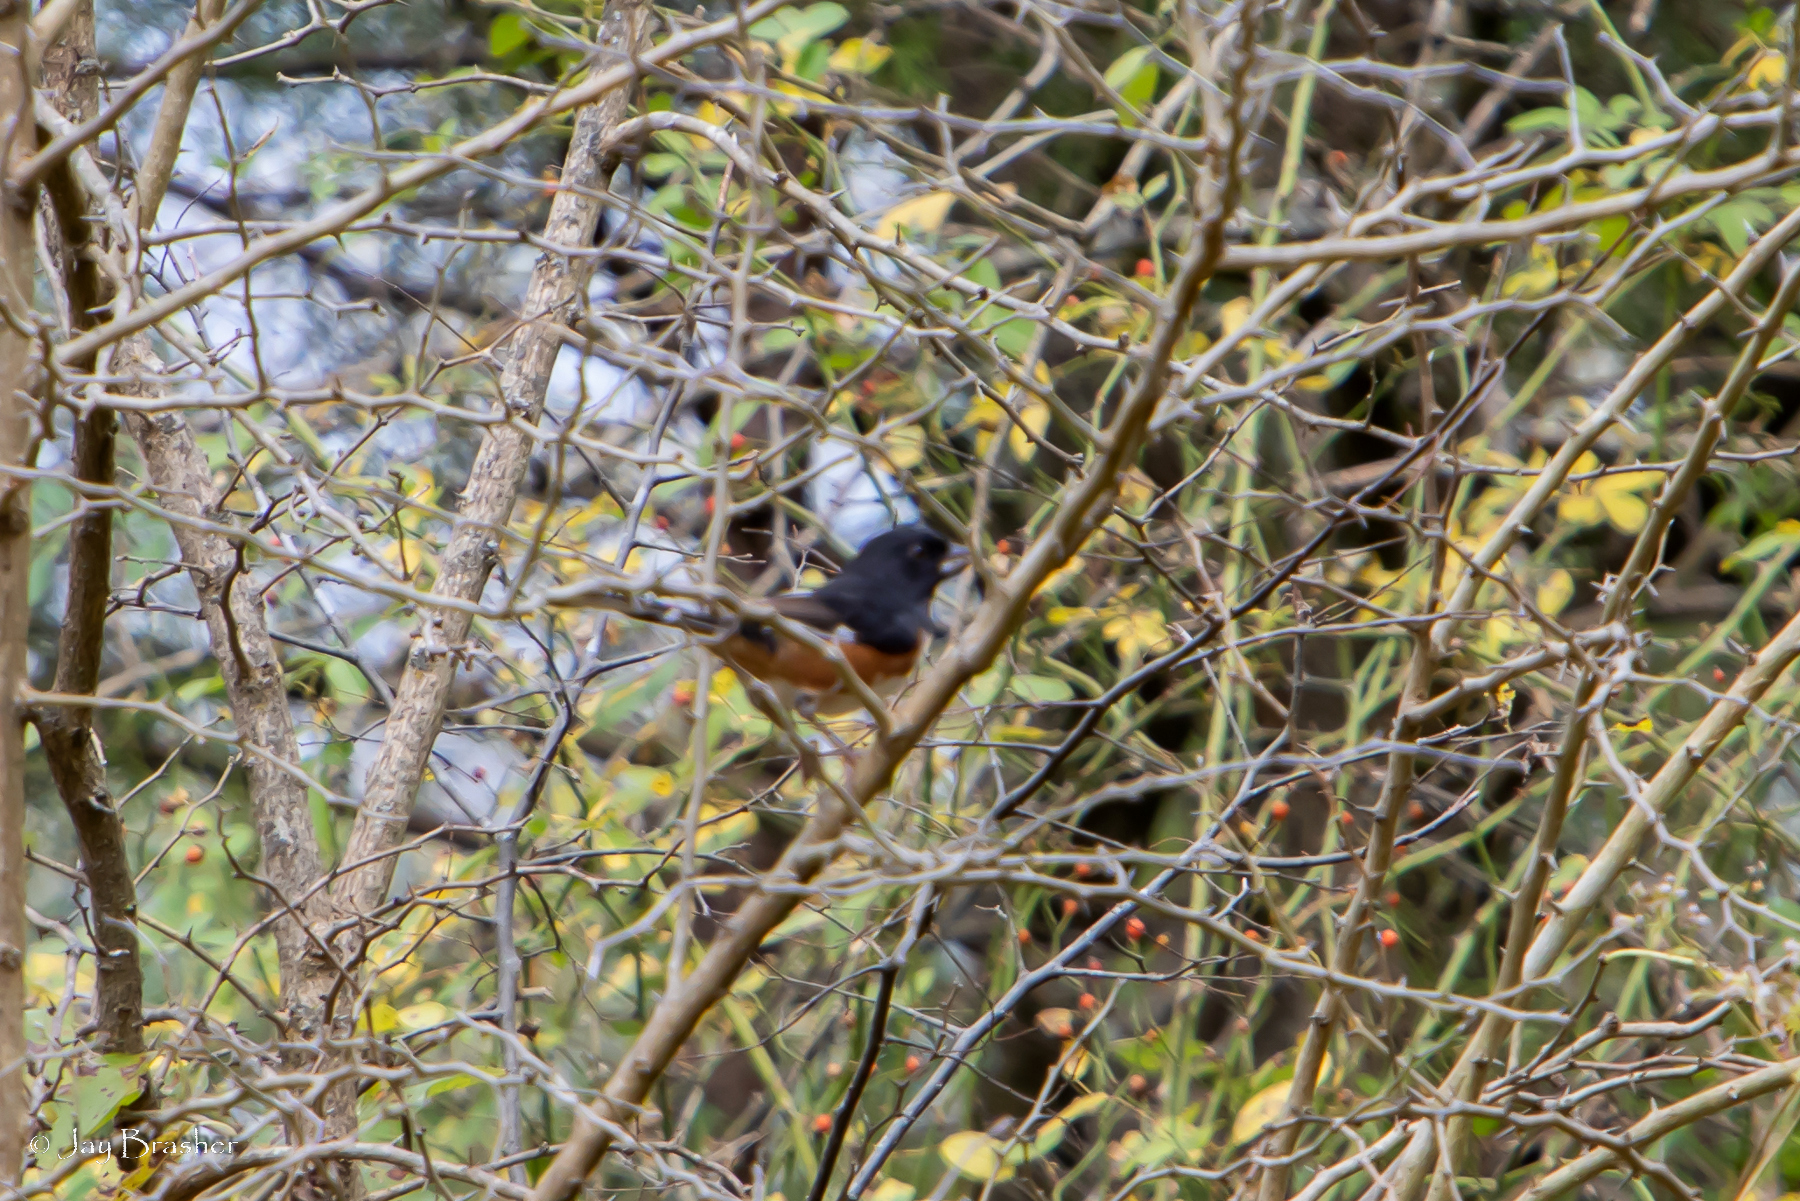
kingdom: Animalia
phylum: Chordata
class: Aves
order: Passeriformes
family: Passerellidae
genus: Pipilo
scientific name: Pipilo erythrophthalmus
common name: Eastern towhee
